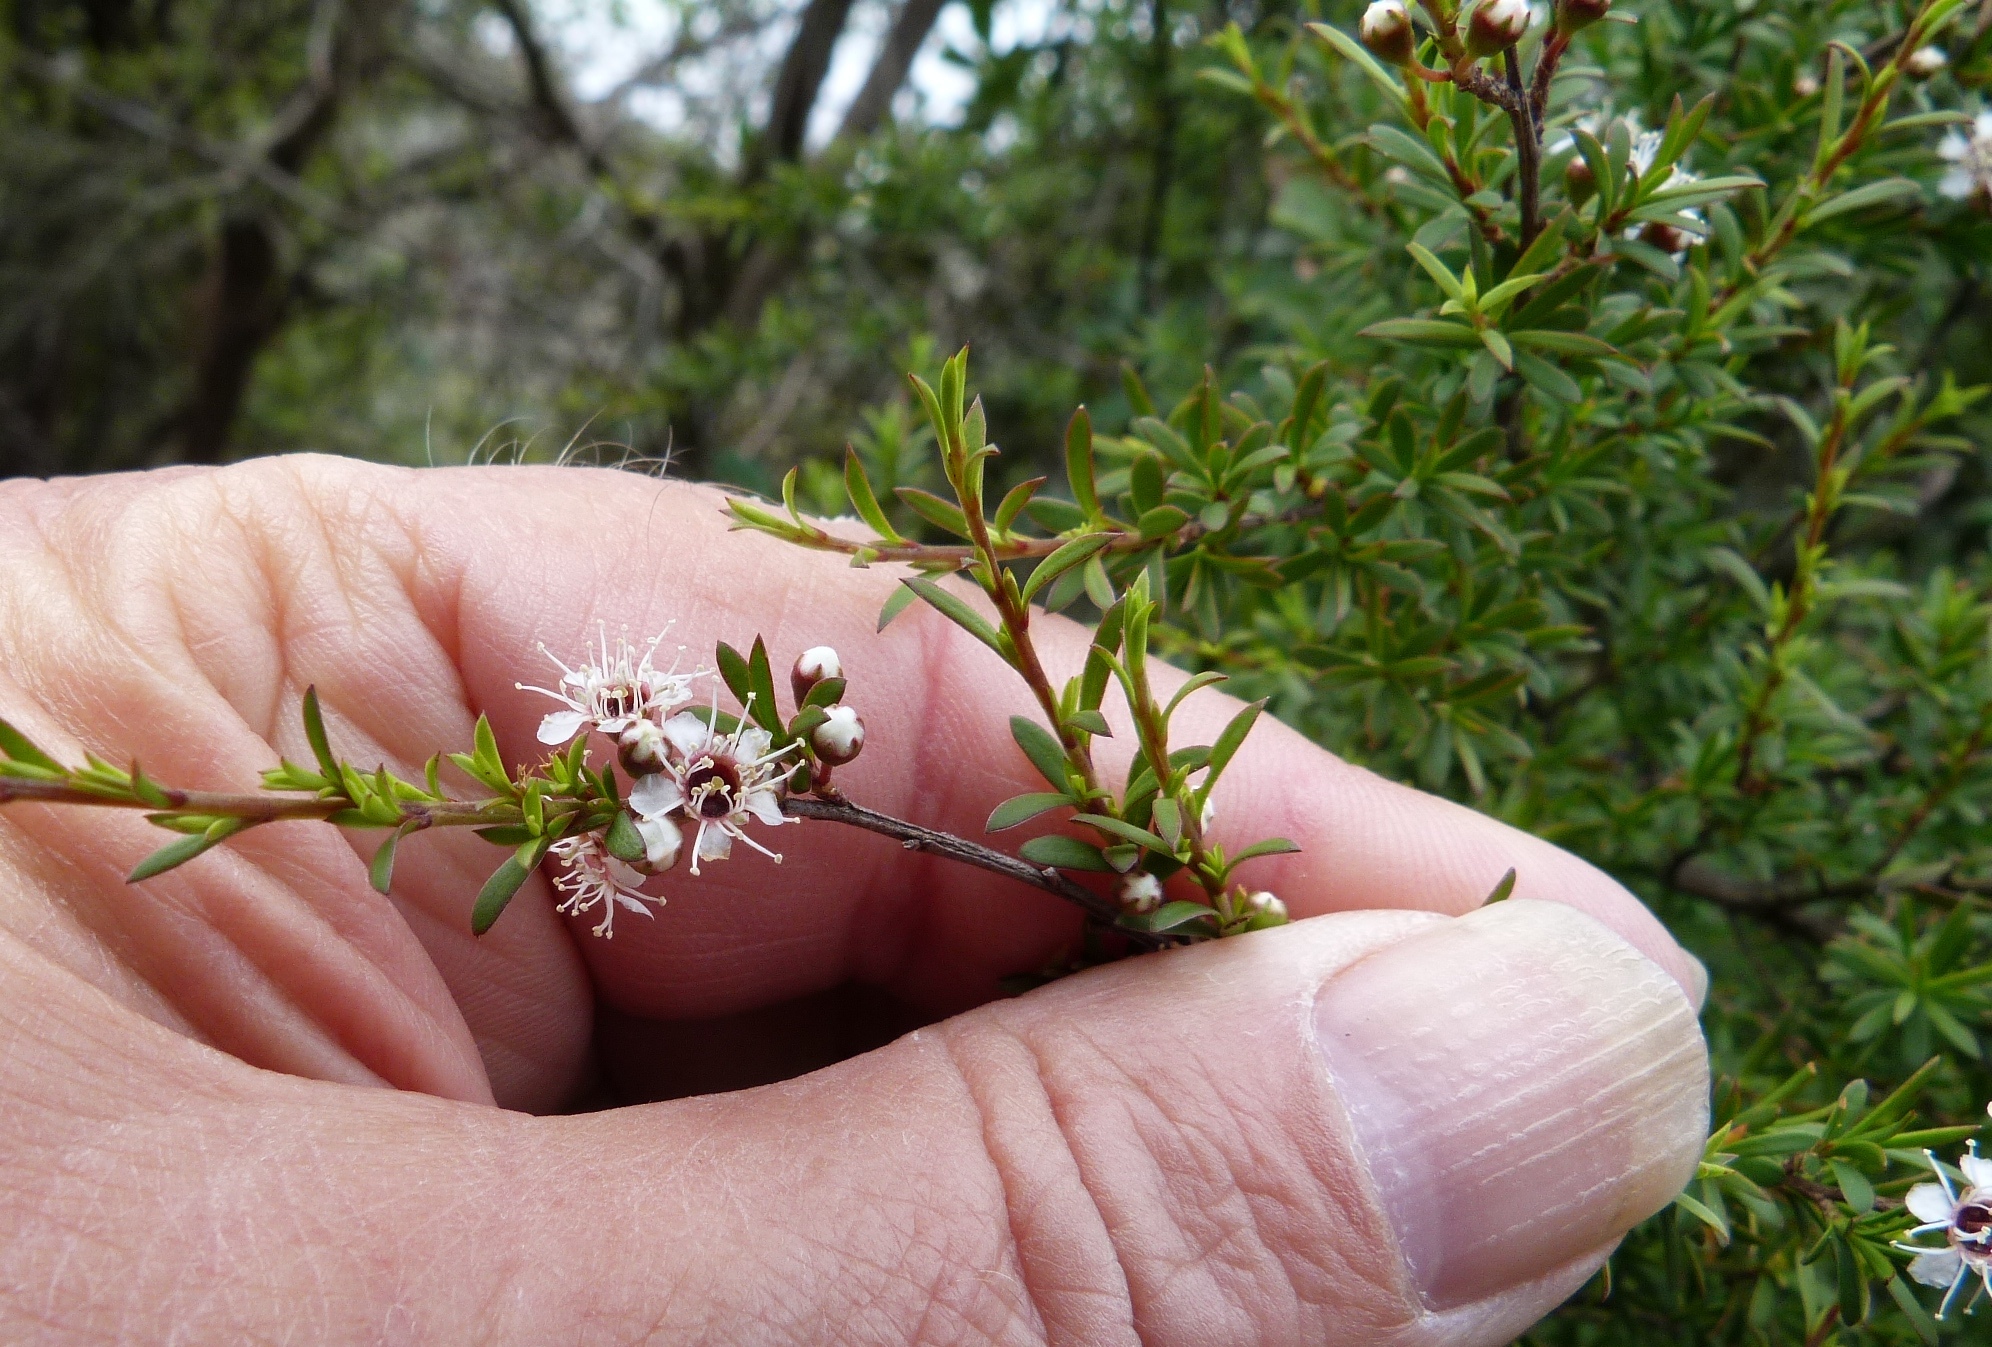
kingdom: Plantae
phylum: Tracheophyta
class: Magnoliopsida
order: Myrtales
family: Myrtaceae
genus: Kunzea
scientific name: Kunzea robusta
